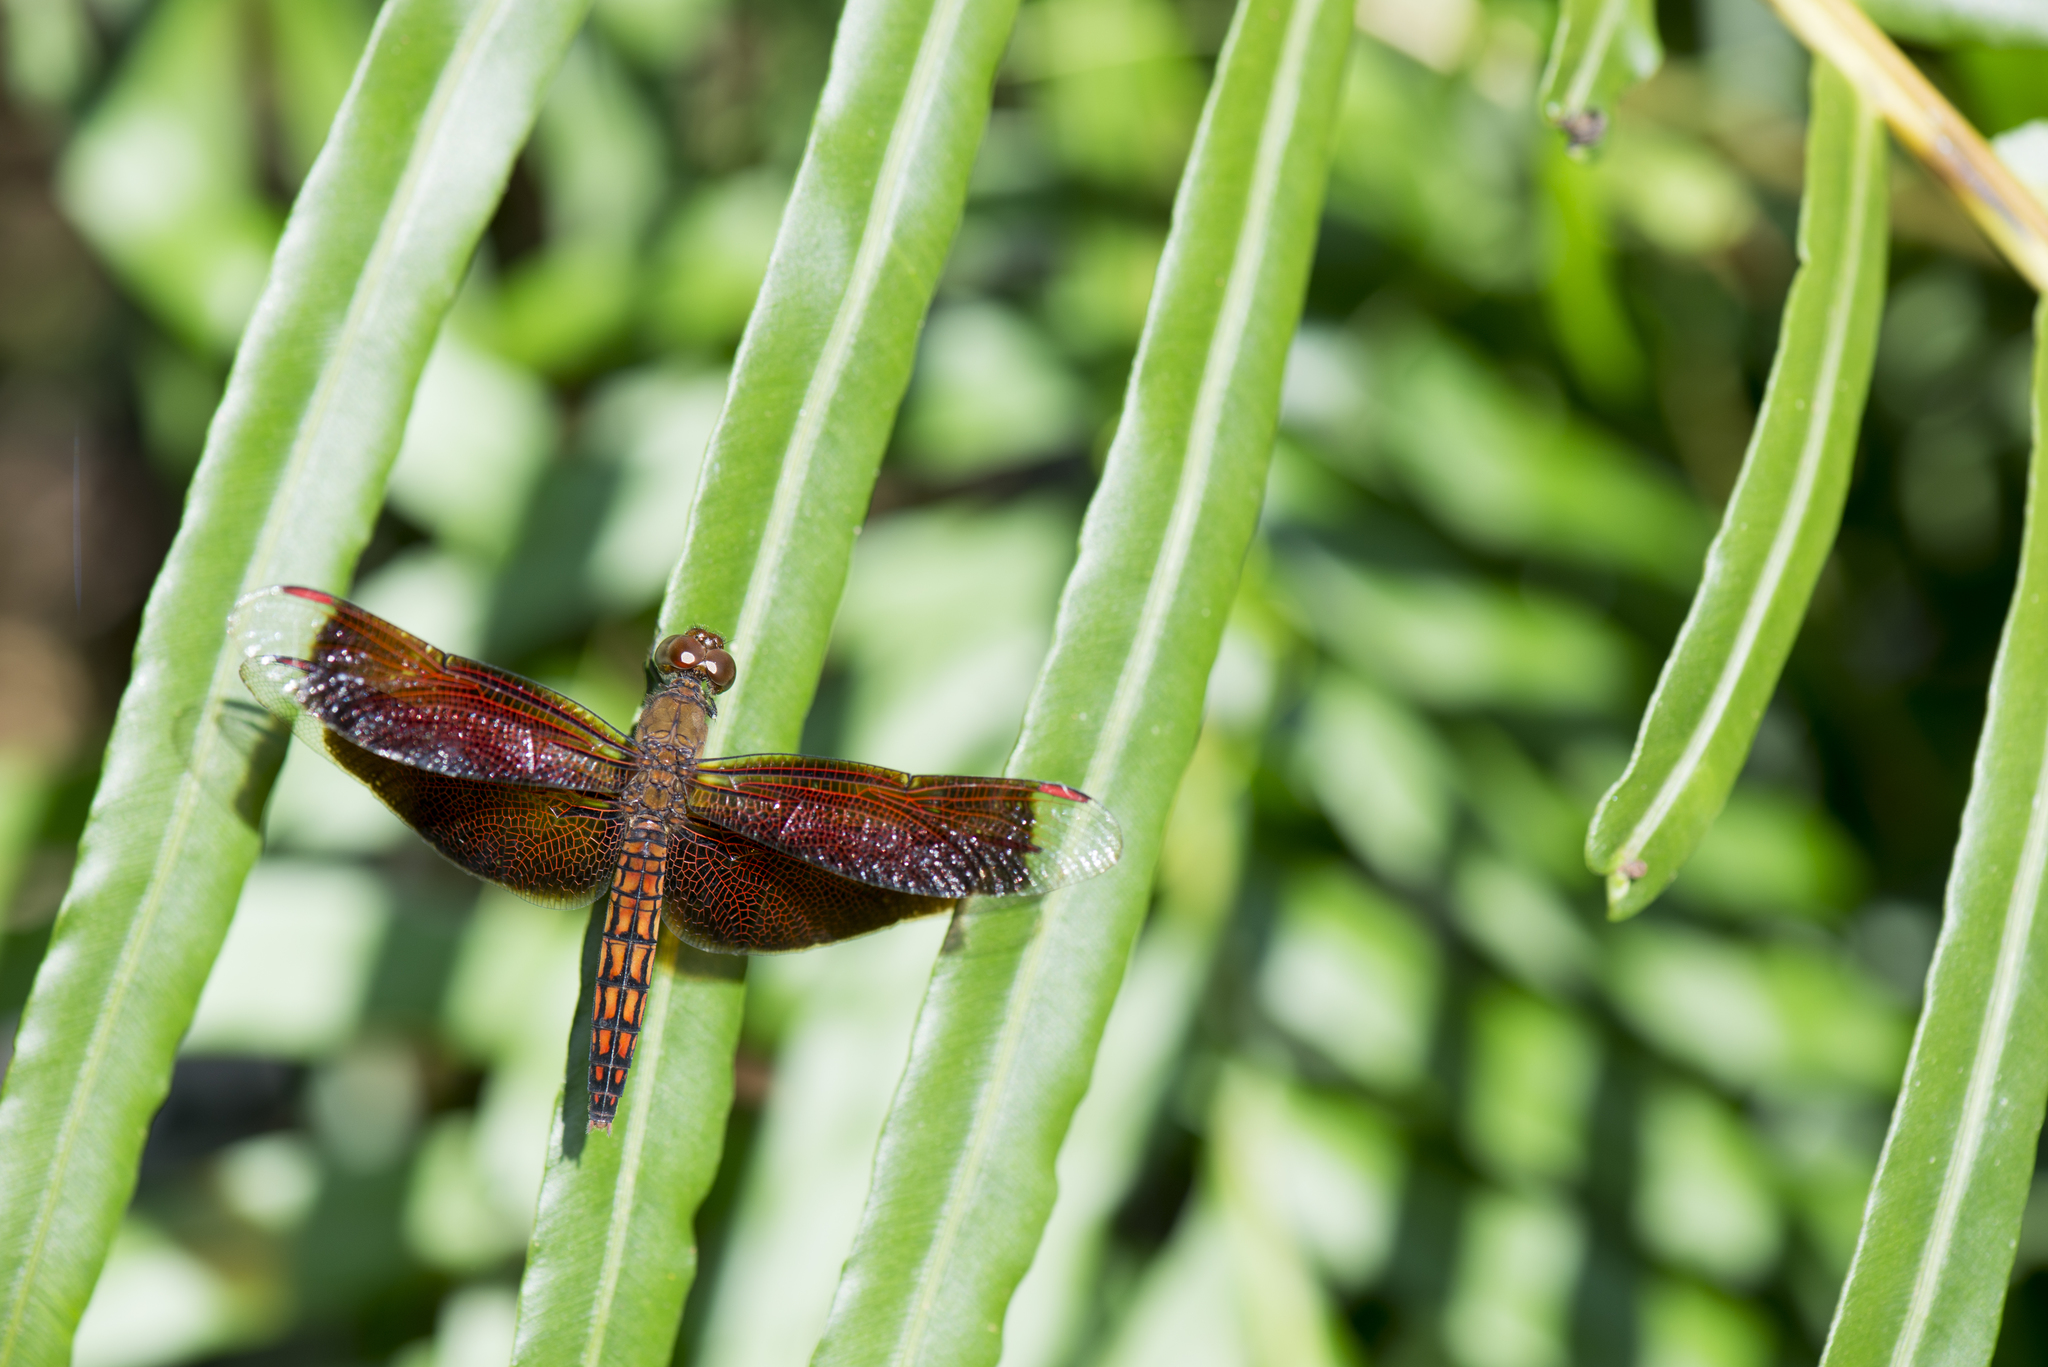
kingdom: Animalia
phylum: Arthropoda
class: Insecta
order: Odonata
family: Libellulidae
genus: Neurothemis
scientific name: Neurothemis taiwanensis
